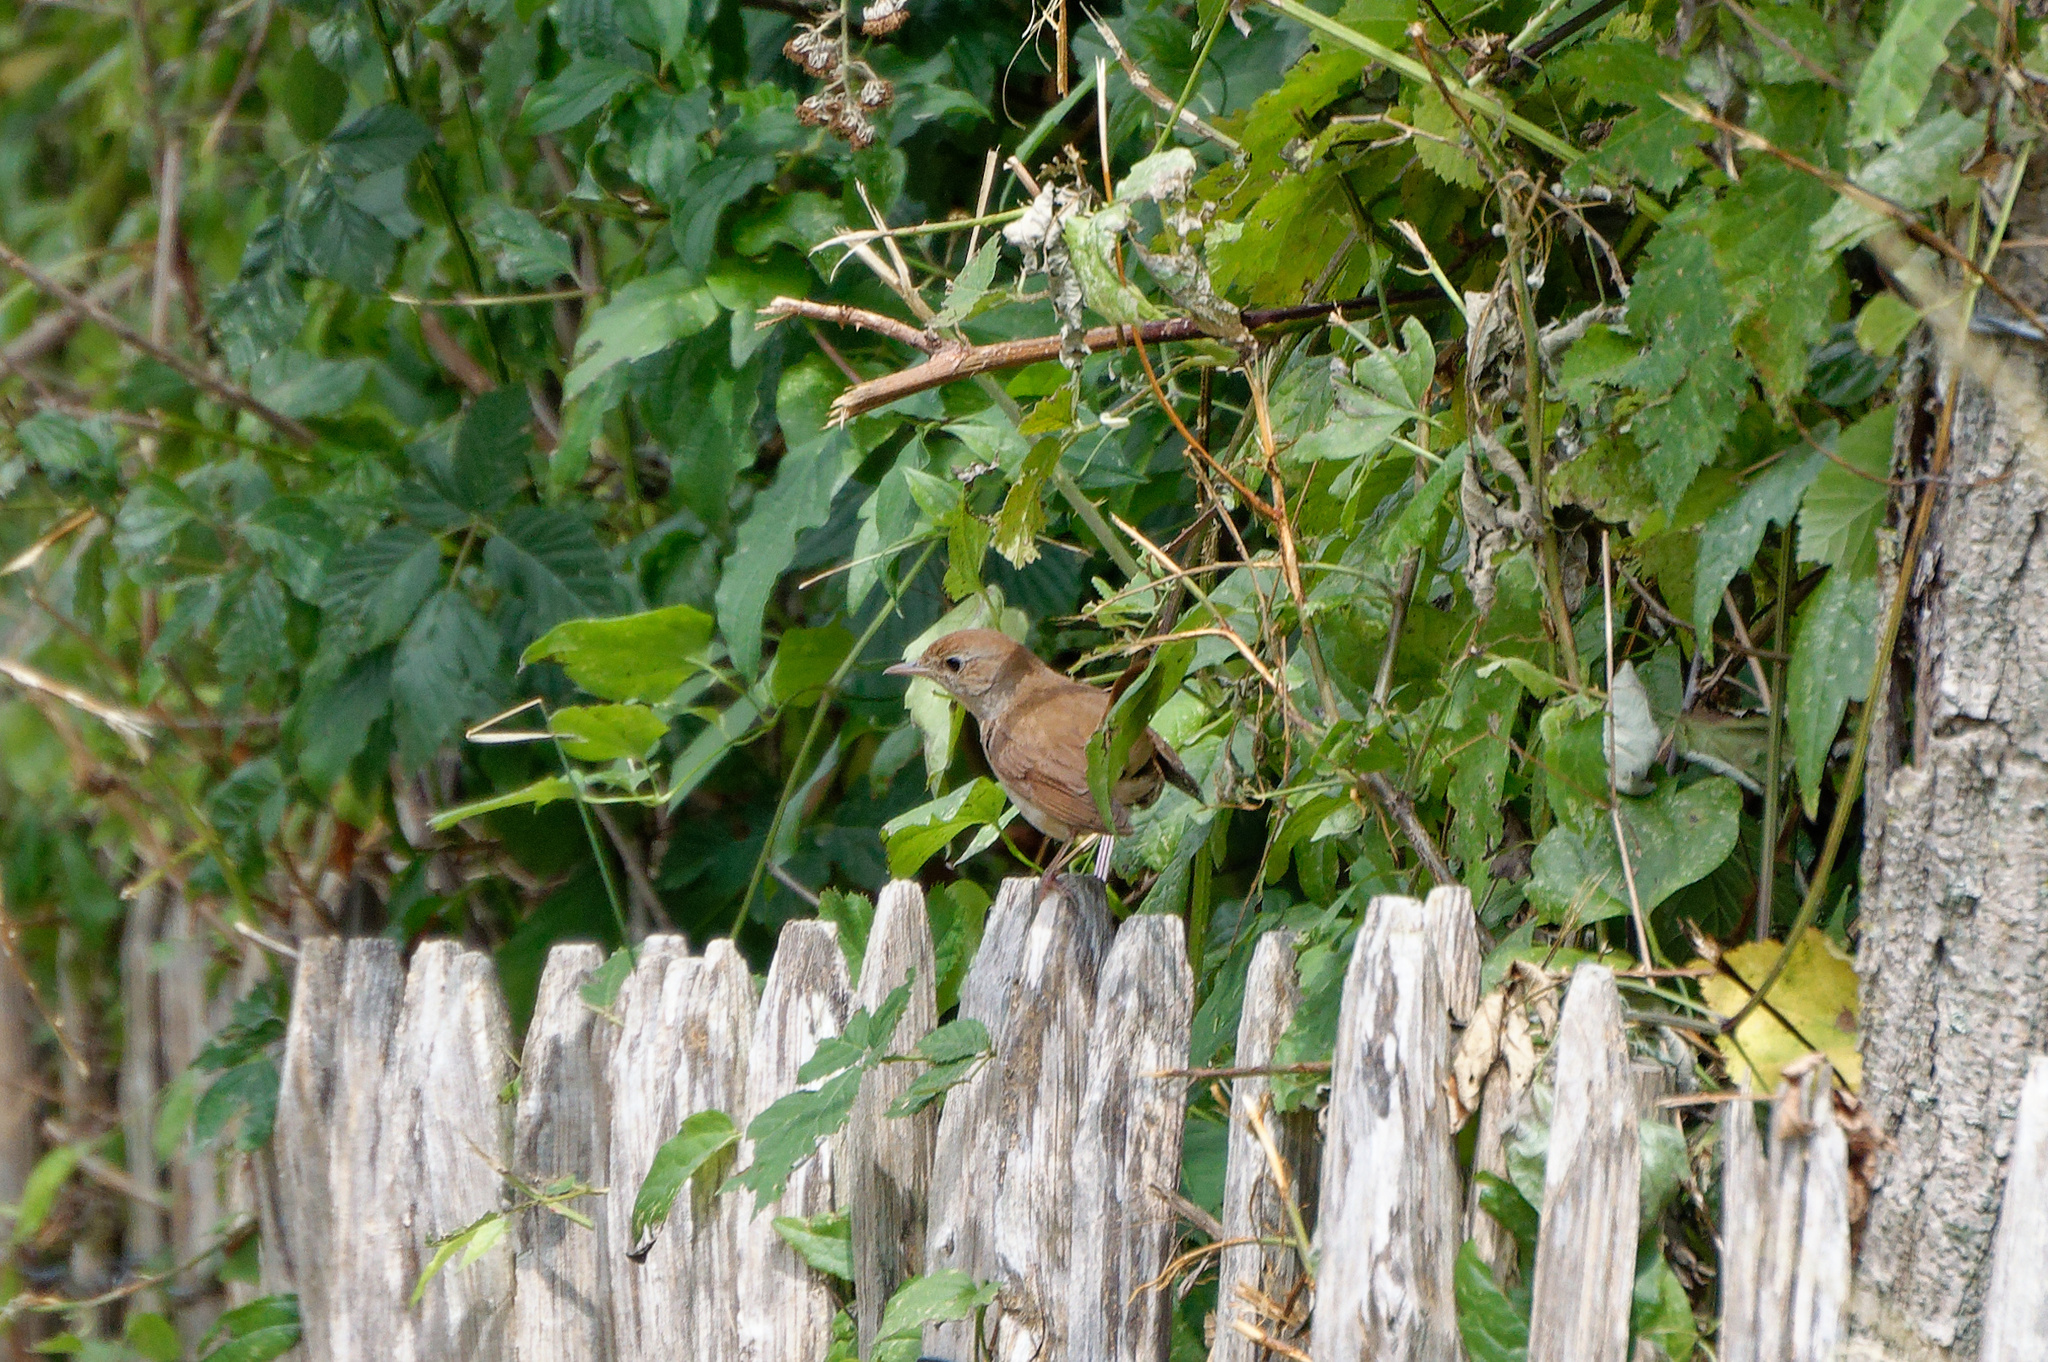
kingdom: Animalia
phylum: Chordata
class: Aves
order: Passeriformes
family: Muscicapidae
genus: Luscinia
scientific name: Luscinia megarhynchos
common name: Common nightingale
